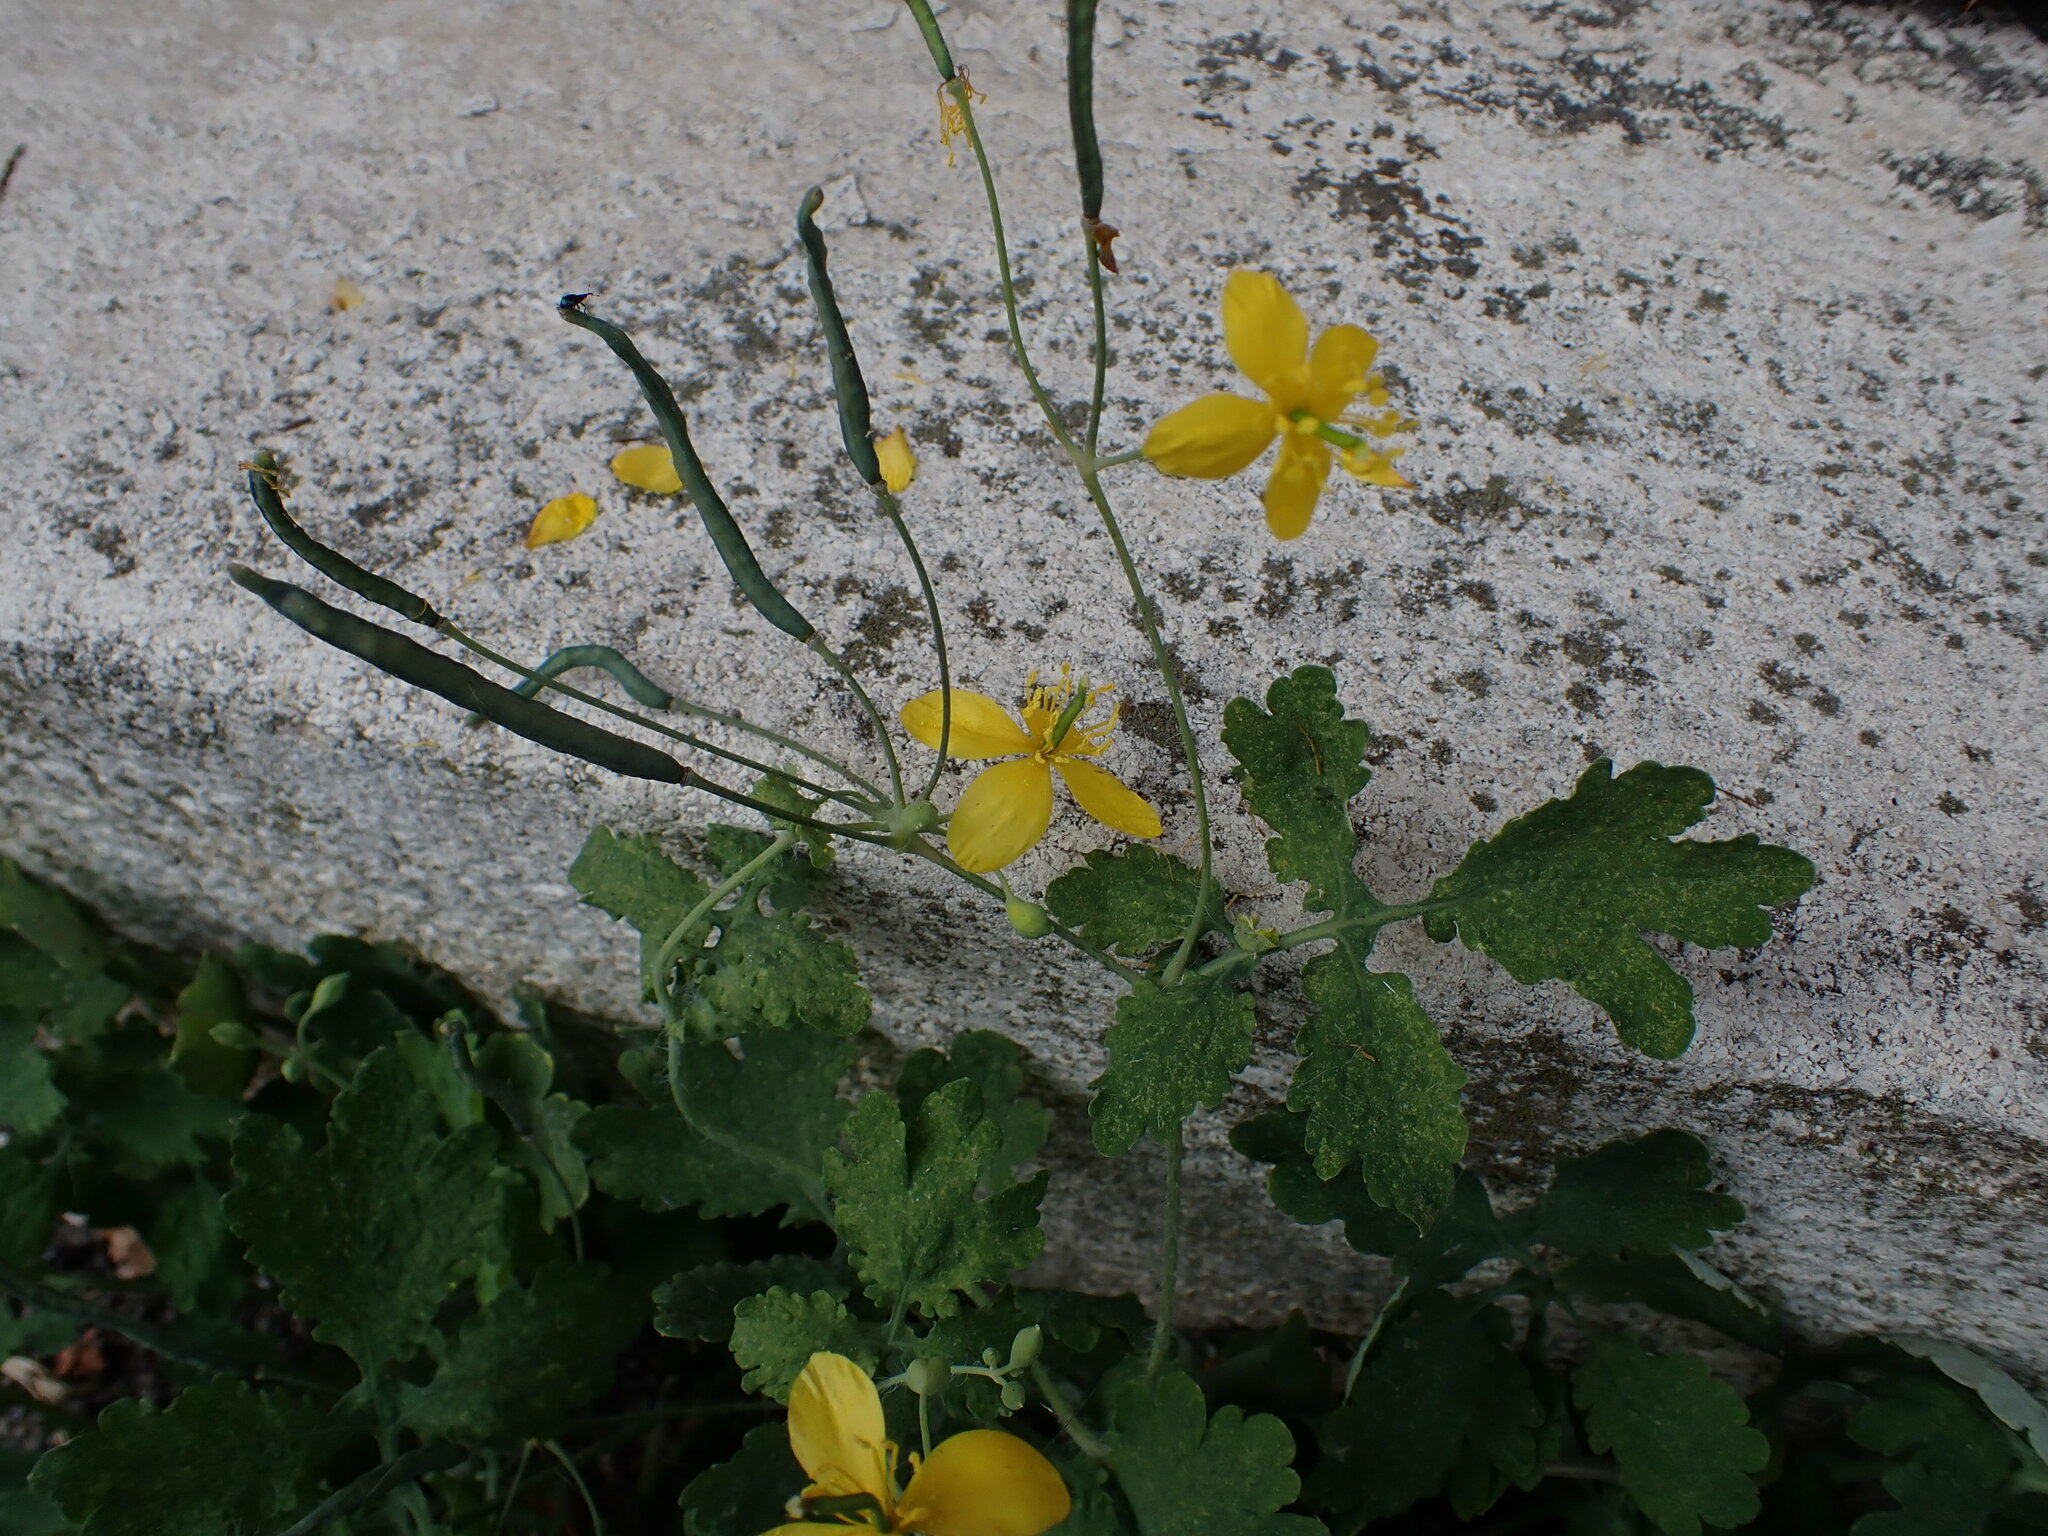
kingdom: Plantae
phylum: Tracheophyta
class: Magnoliopsida
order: Ranunculales
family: Papaveraceae
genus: Chelidonium
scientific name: Chelidonium majus
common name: Greater celandine
